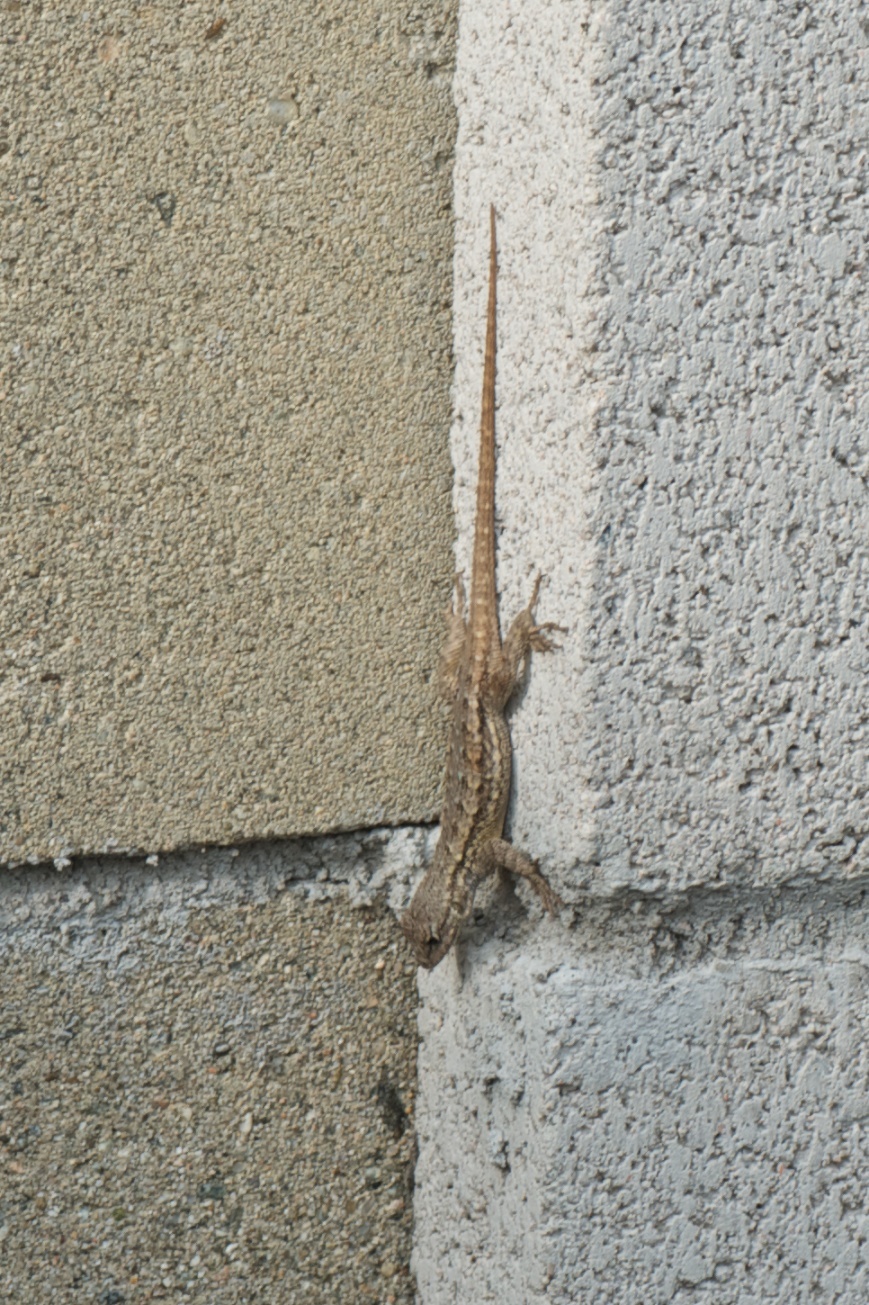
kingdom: Animalia
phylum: Chordata
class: Squamata
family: Phrynosomatidae
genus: Sceloporus
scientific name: Sceloporus occidentalis
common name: Western fence lizard
